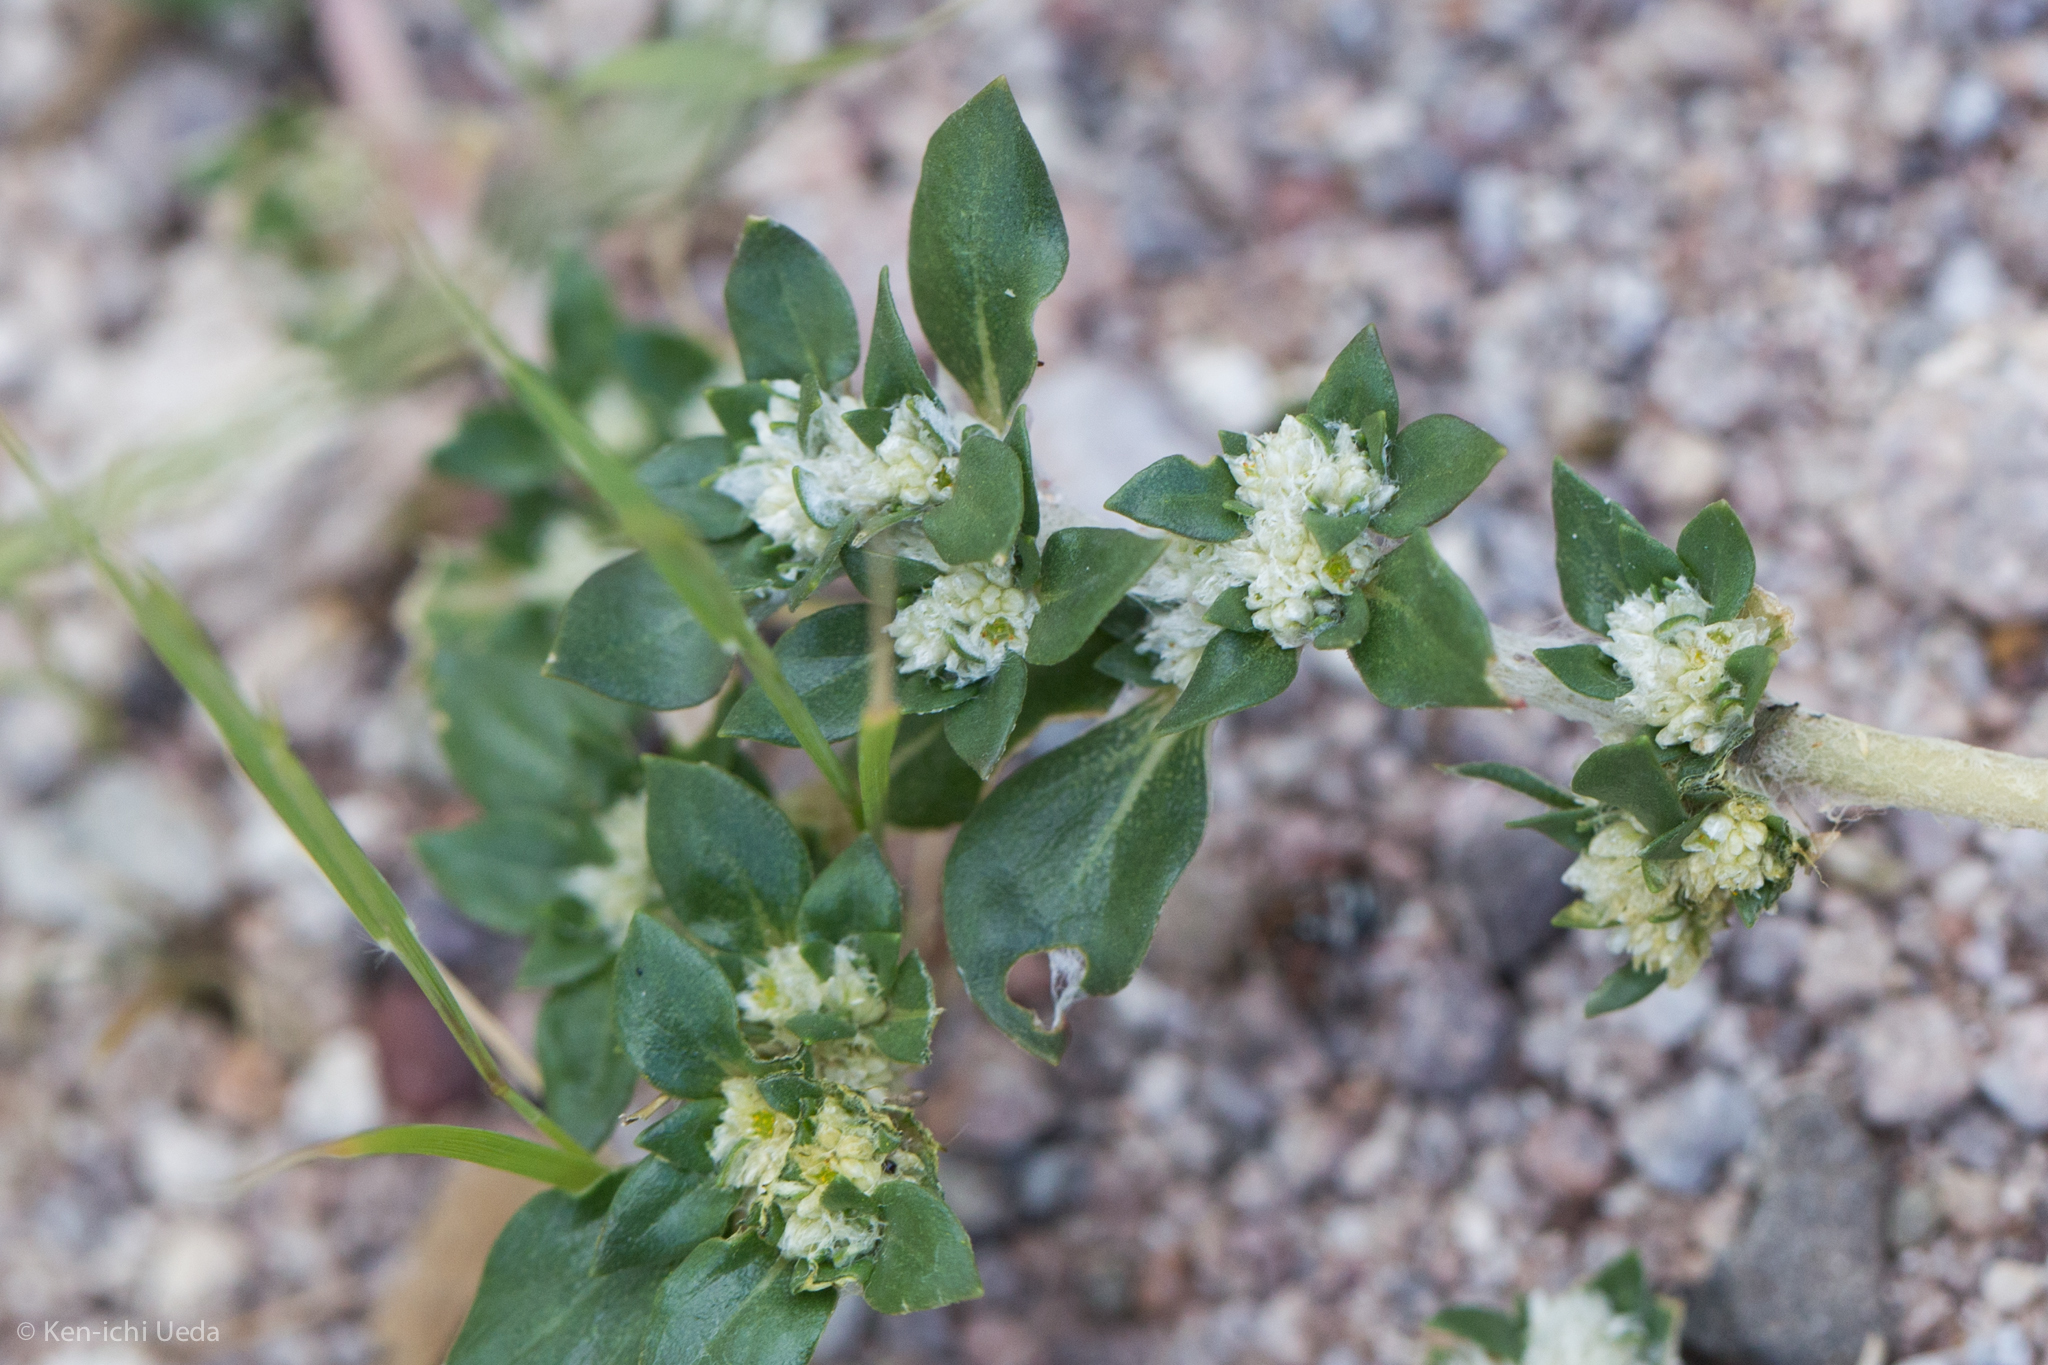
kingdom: Plantae
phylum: Tracheophyta
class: Magnoliopsida
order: Caryophyllales
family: Amaranthaceae
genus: Guilleminea
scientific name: Guilleminea densa
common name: Small matweed
